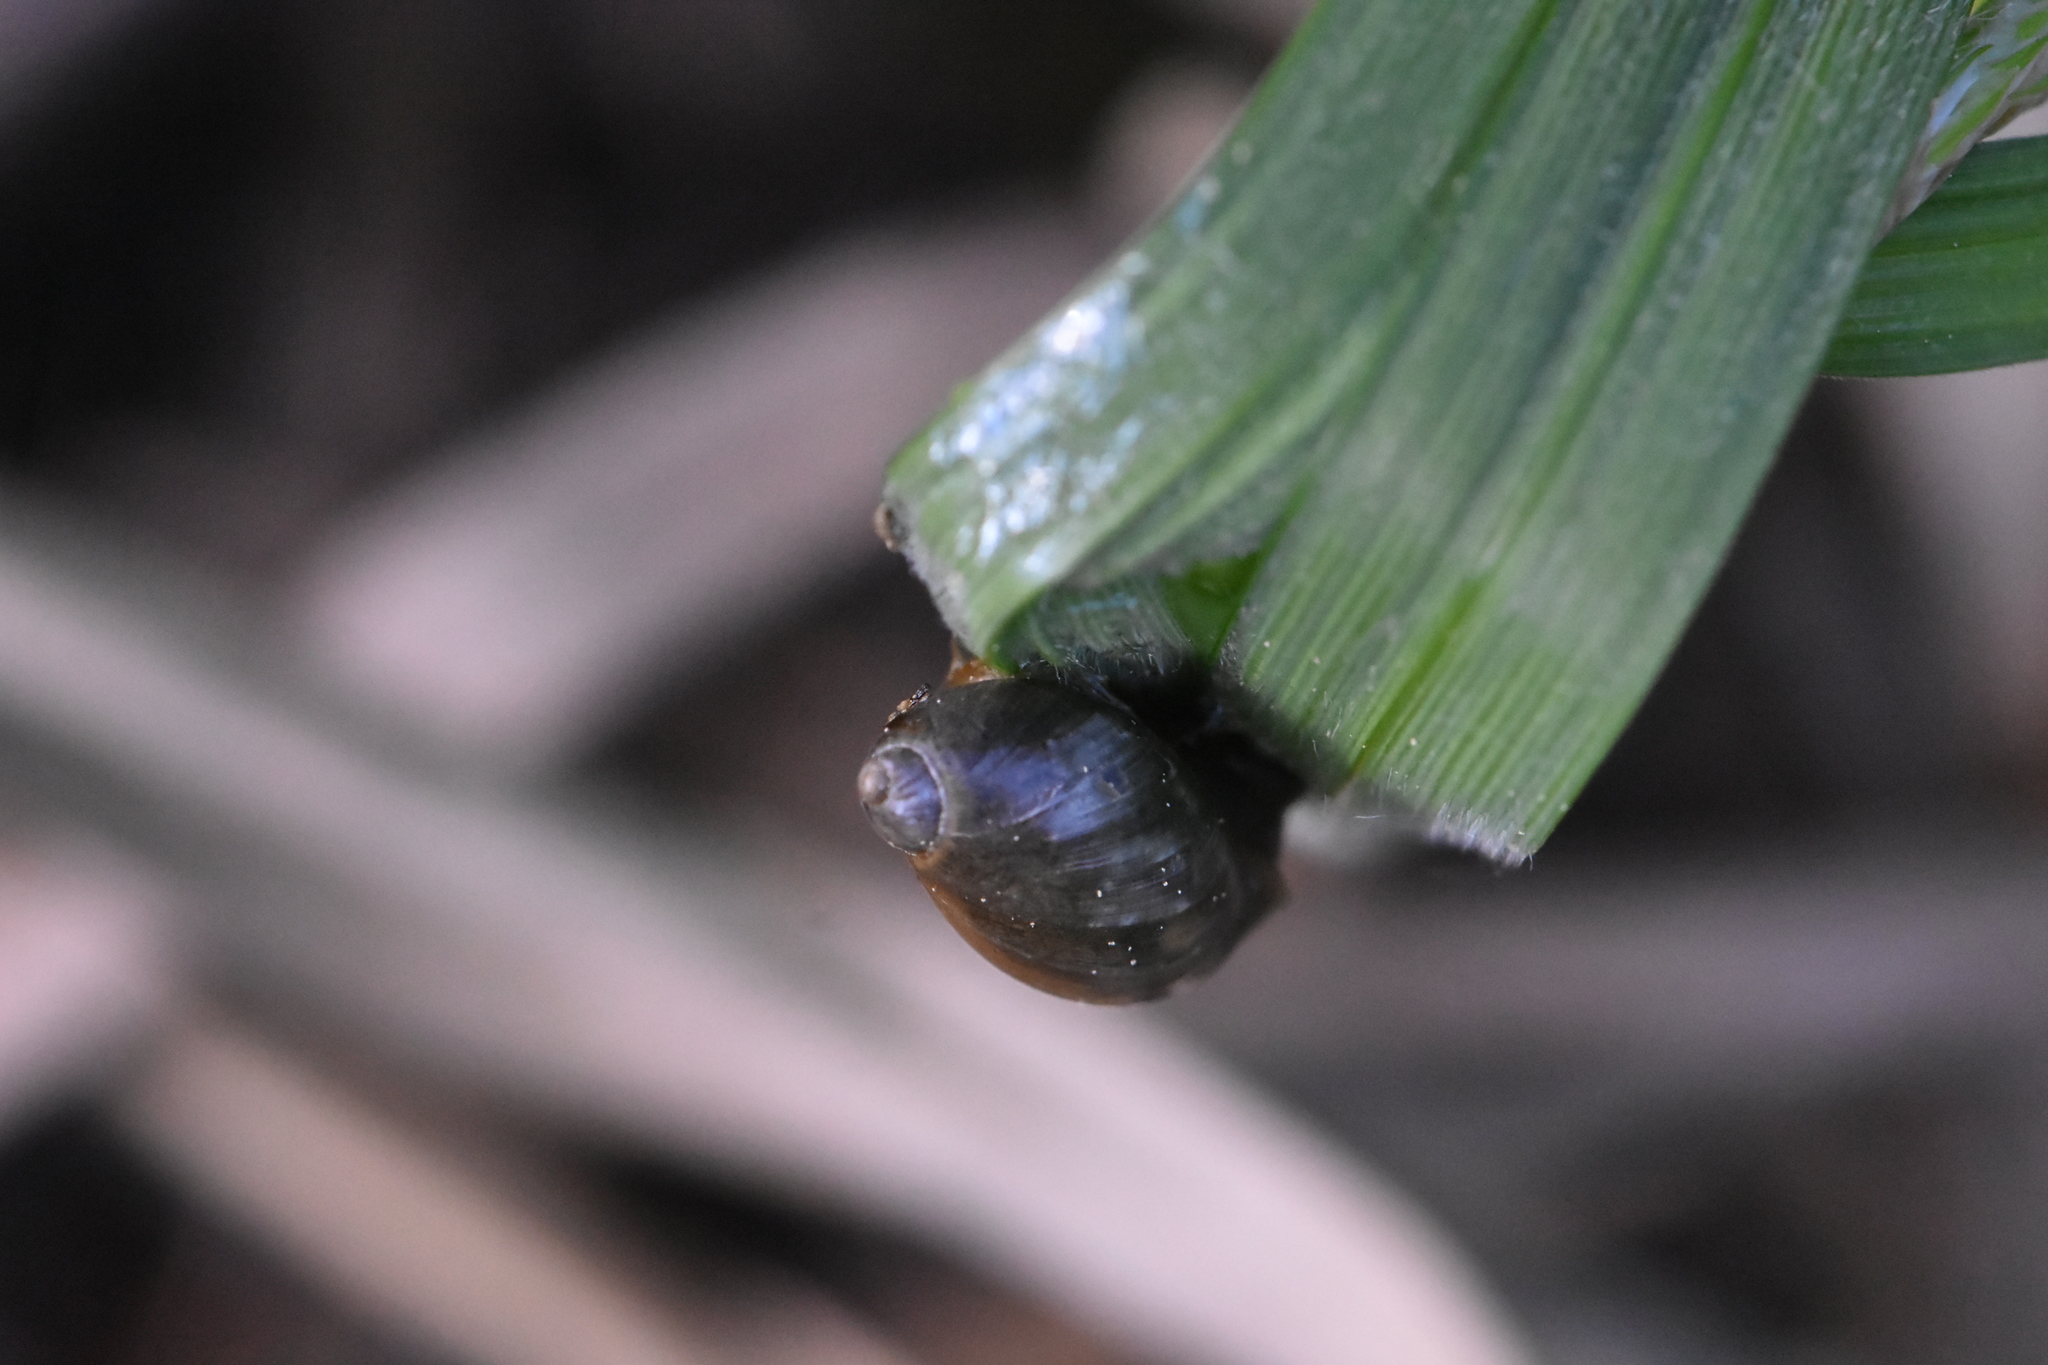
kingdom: Animalia
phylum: Mollusca
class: Gastropoda
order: Stylommatophora
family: Succineidae
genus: Succinea
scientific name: Succinea putris
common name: European ambersnail
